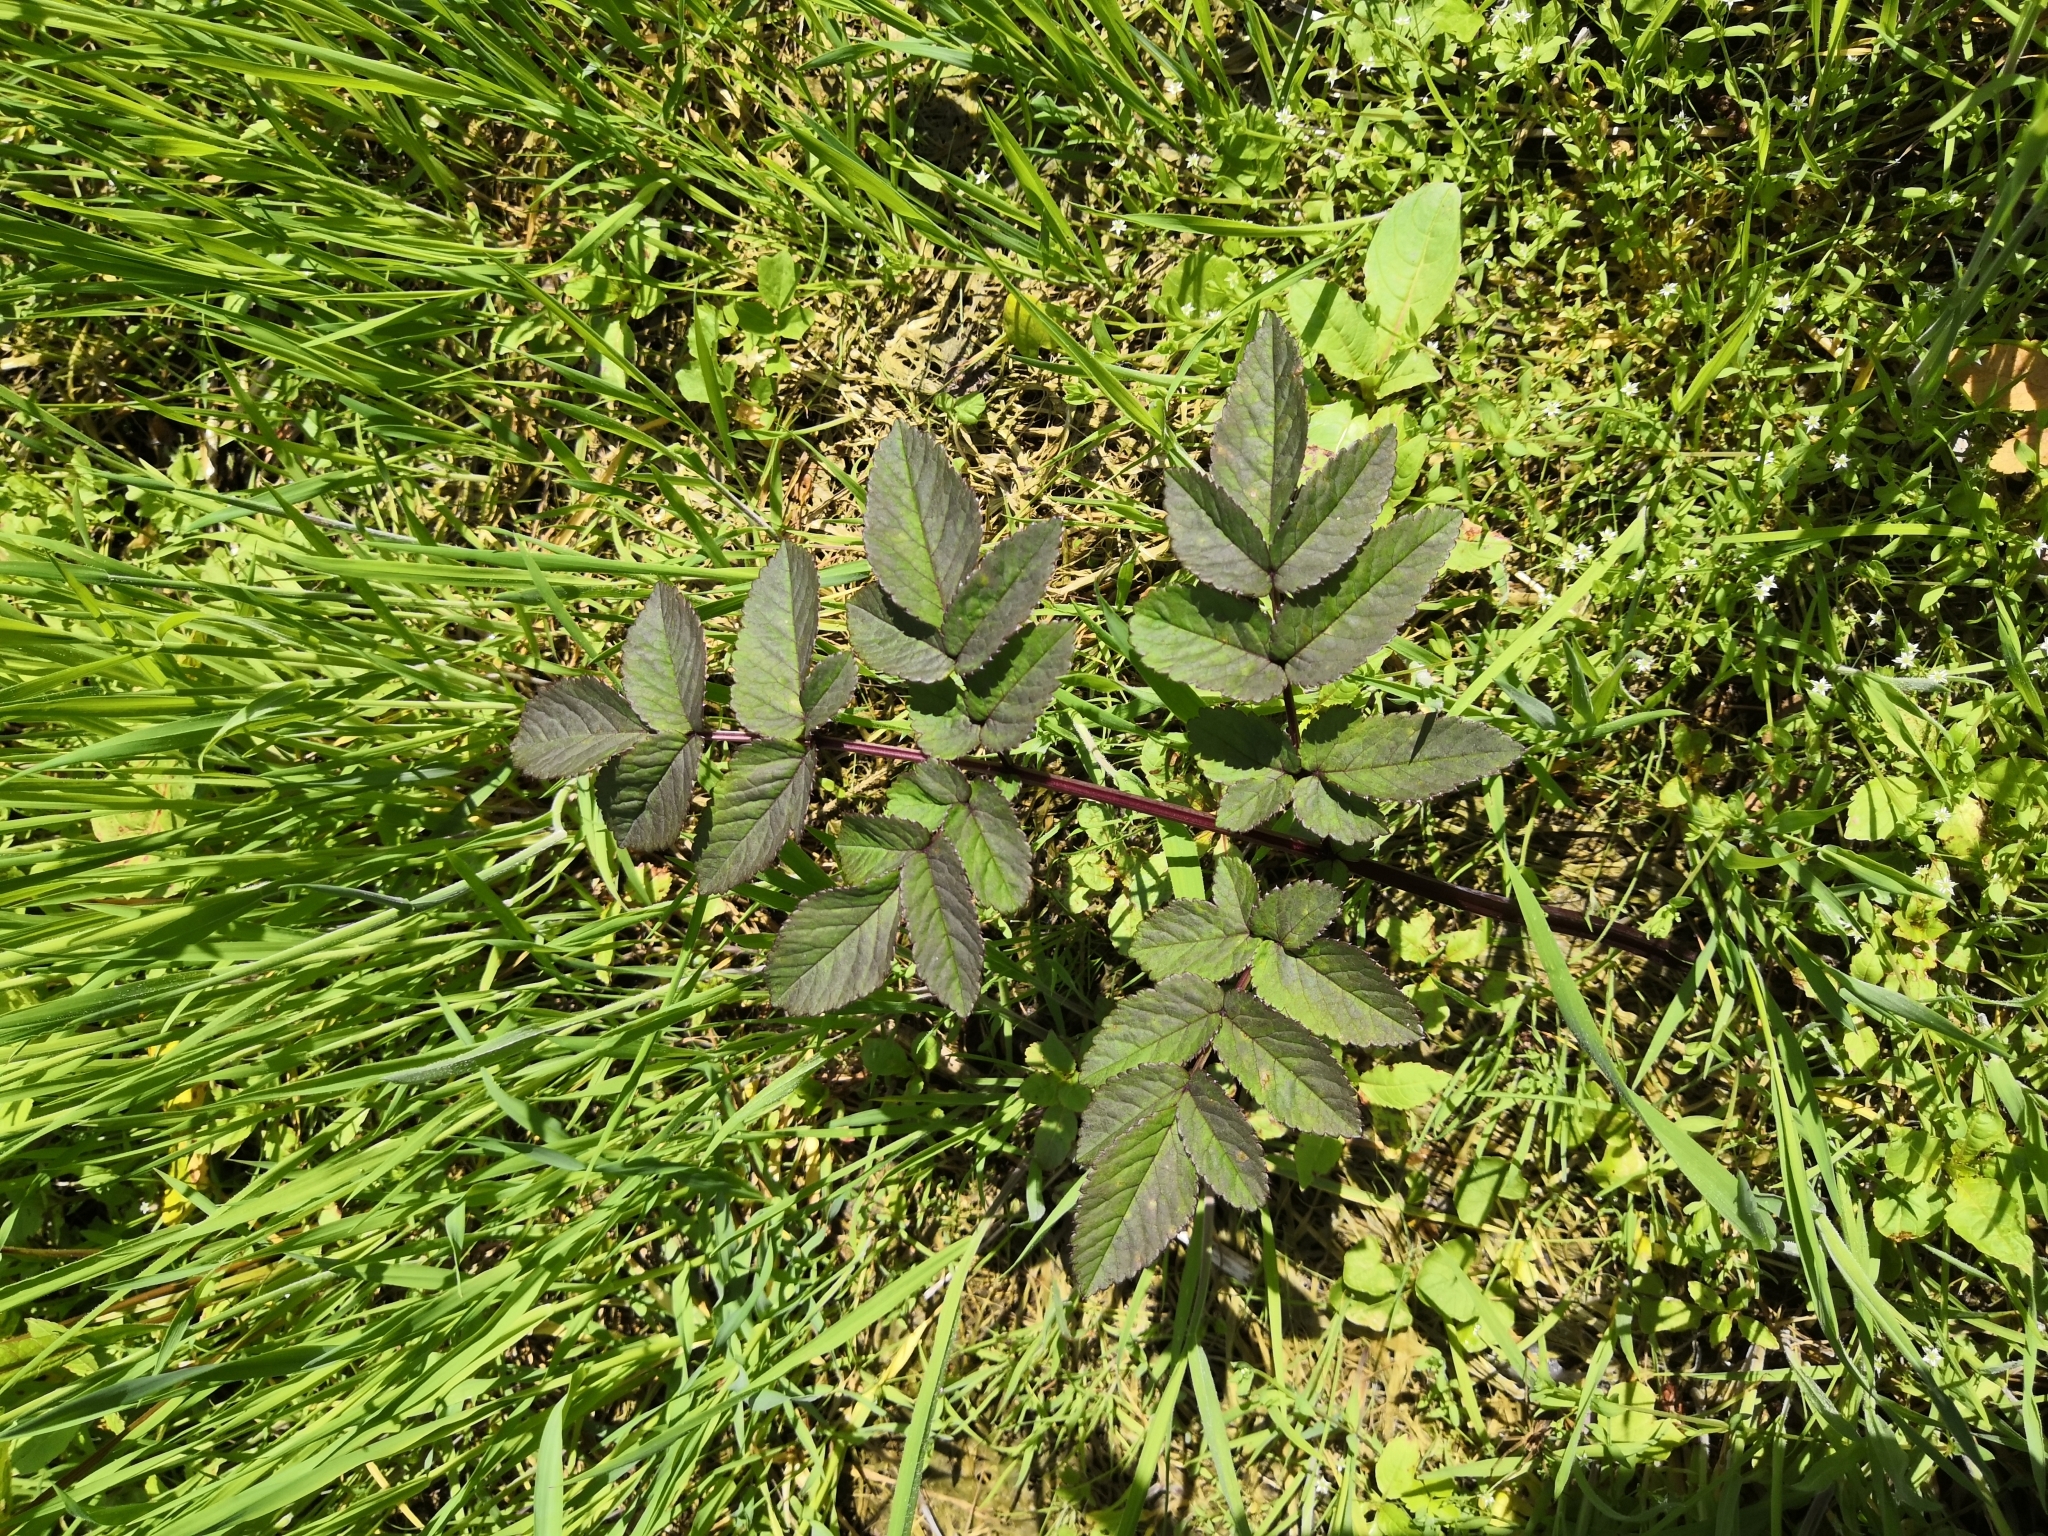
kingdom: Plantae
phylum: Tracheophyta
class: Magnoliopsida
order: Apiales
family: Apiaceae
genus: Angelica
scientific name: Angelica sylvestris
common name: Wild angelica
